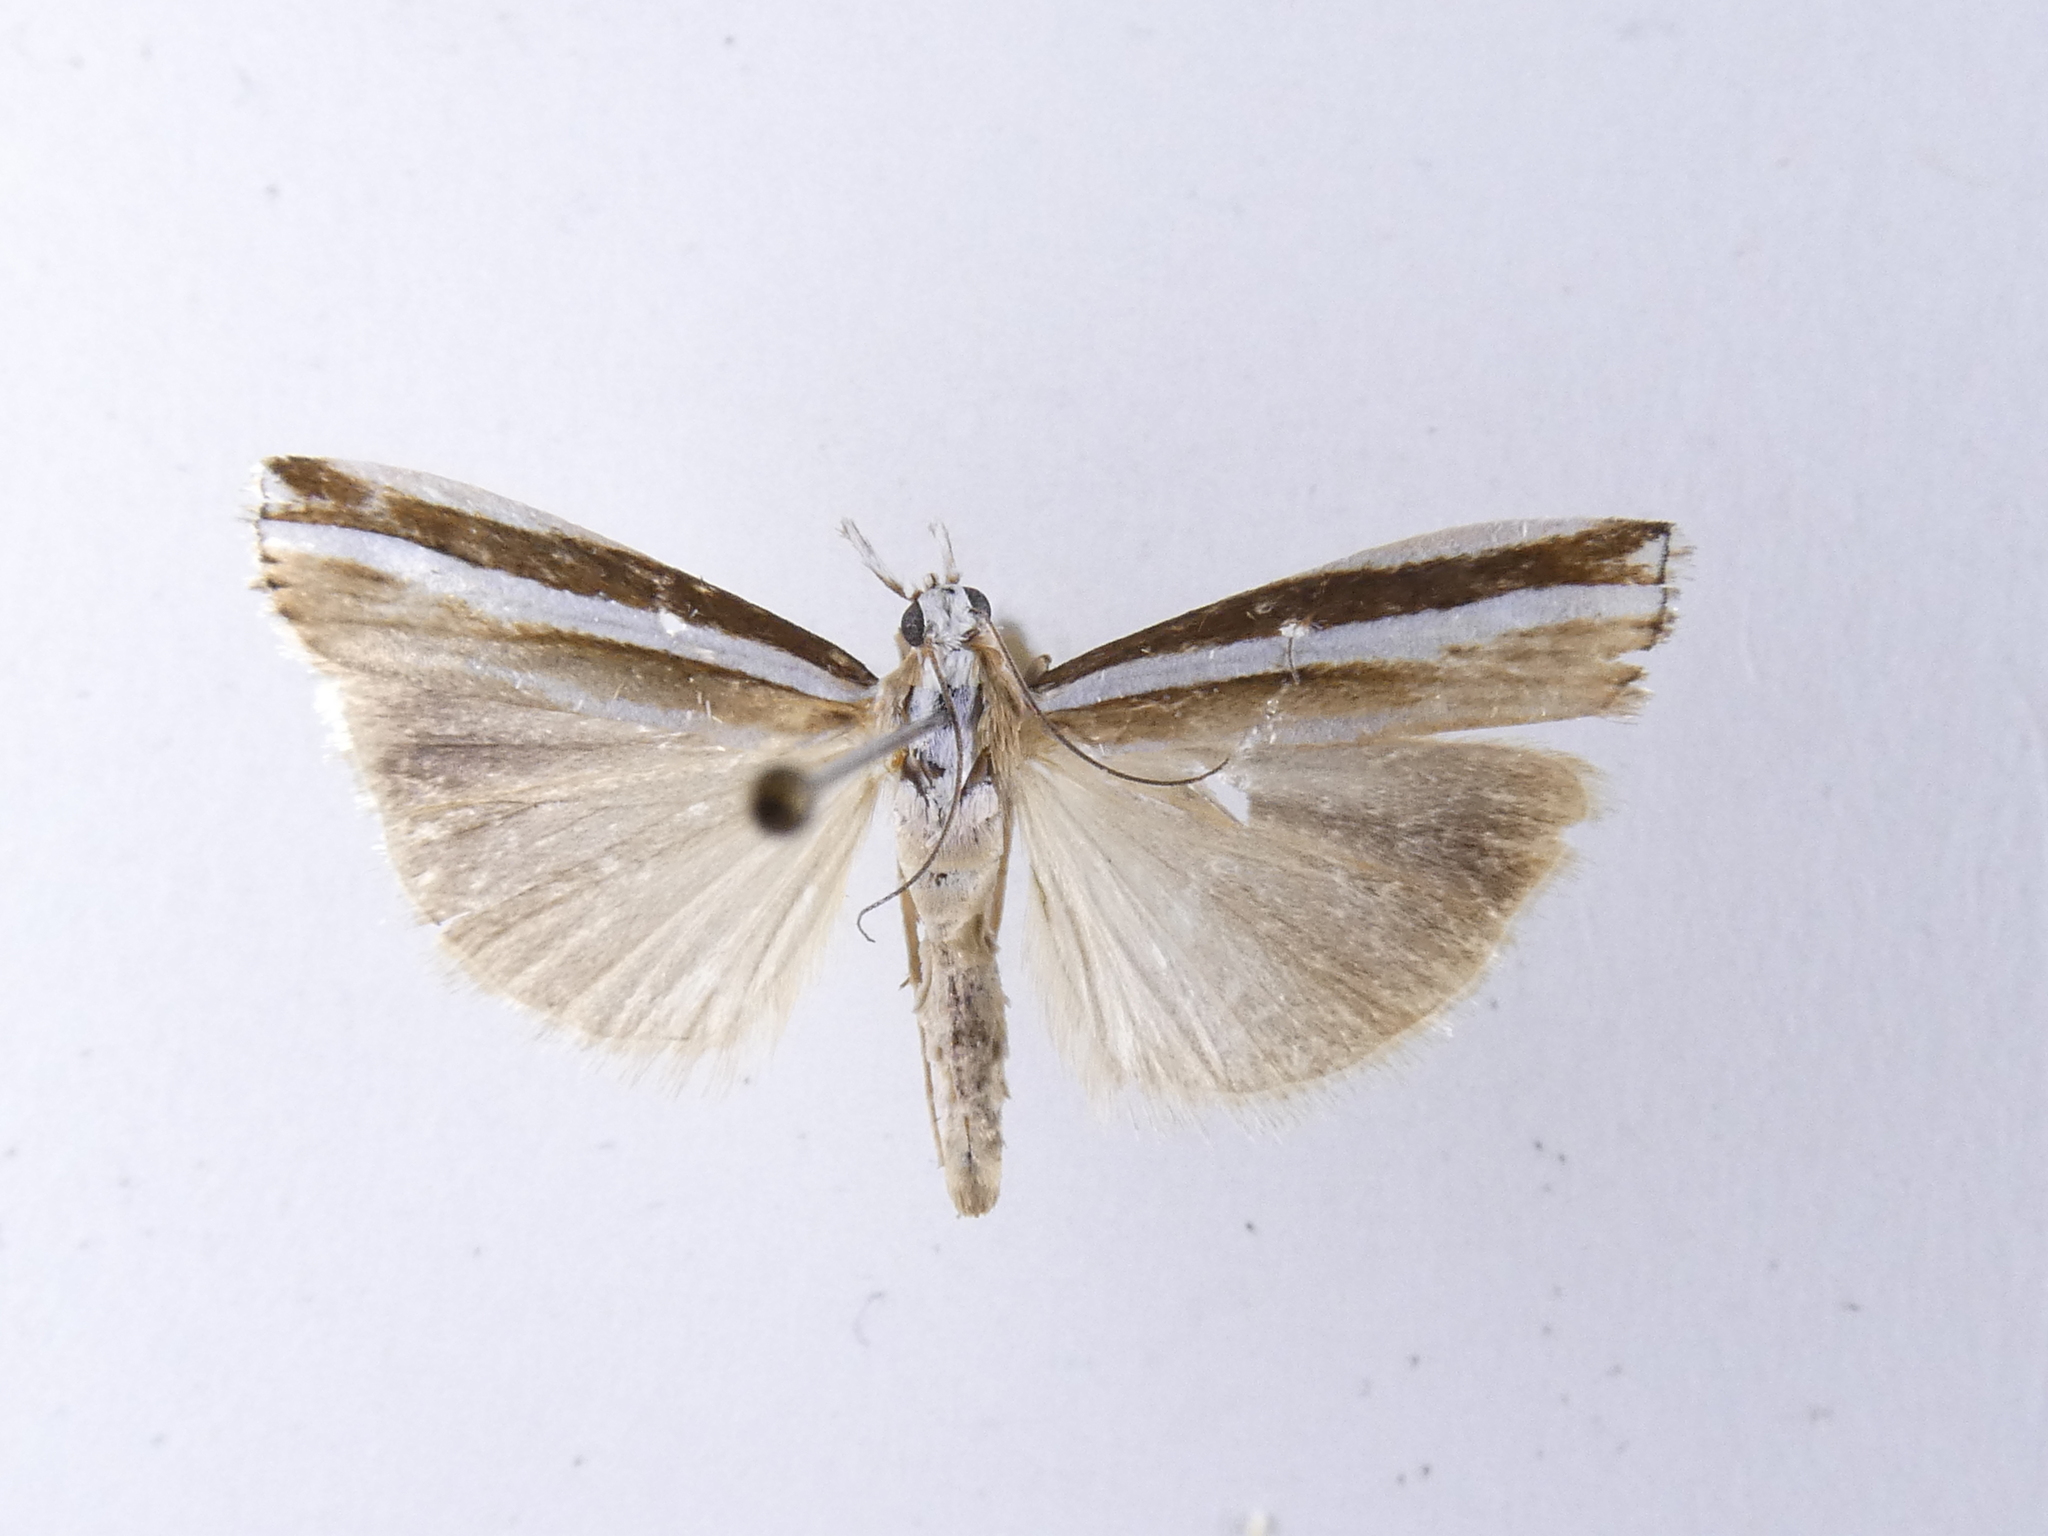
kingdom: Animalia
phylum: Arthropoda
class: Insecta
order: Lepidoptera
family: Crambidae
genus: Orocrambus
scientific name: Orocrambus apicellus
